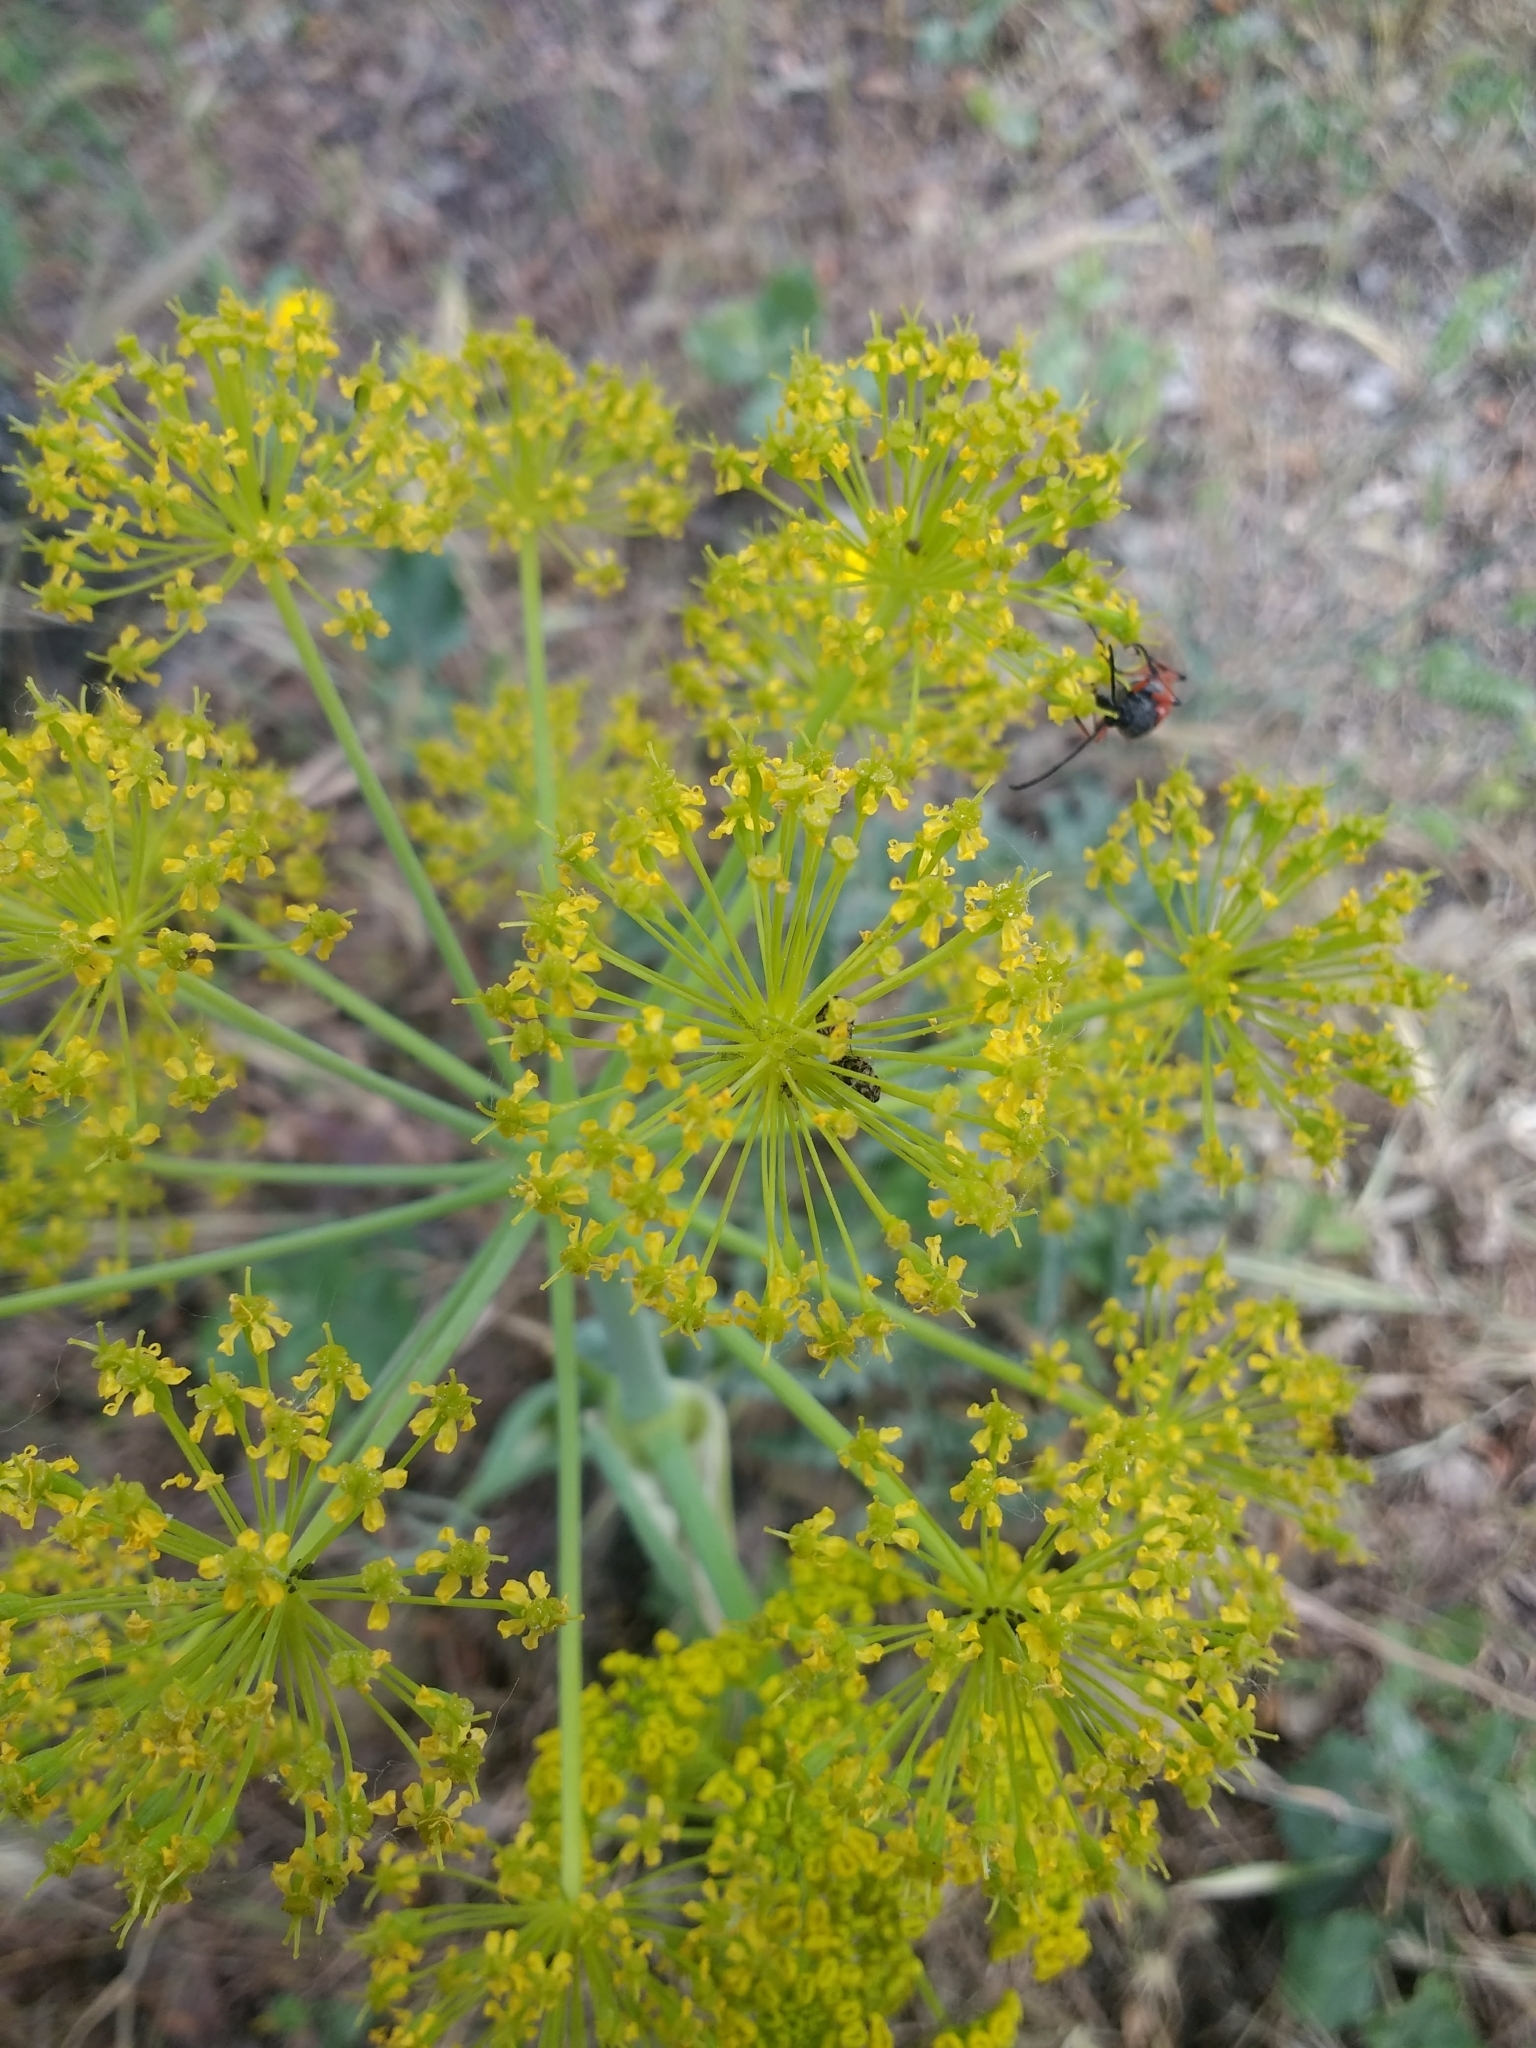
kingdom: Plantae
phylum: Tracheophyta
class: Magnoliopsida
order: Apiales
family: Apiaceae
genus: Thapsia
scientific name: Thapsia villosa
